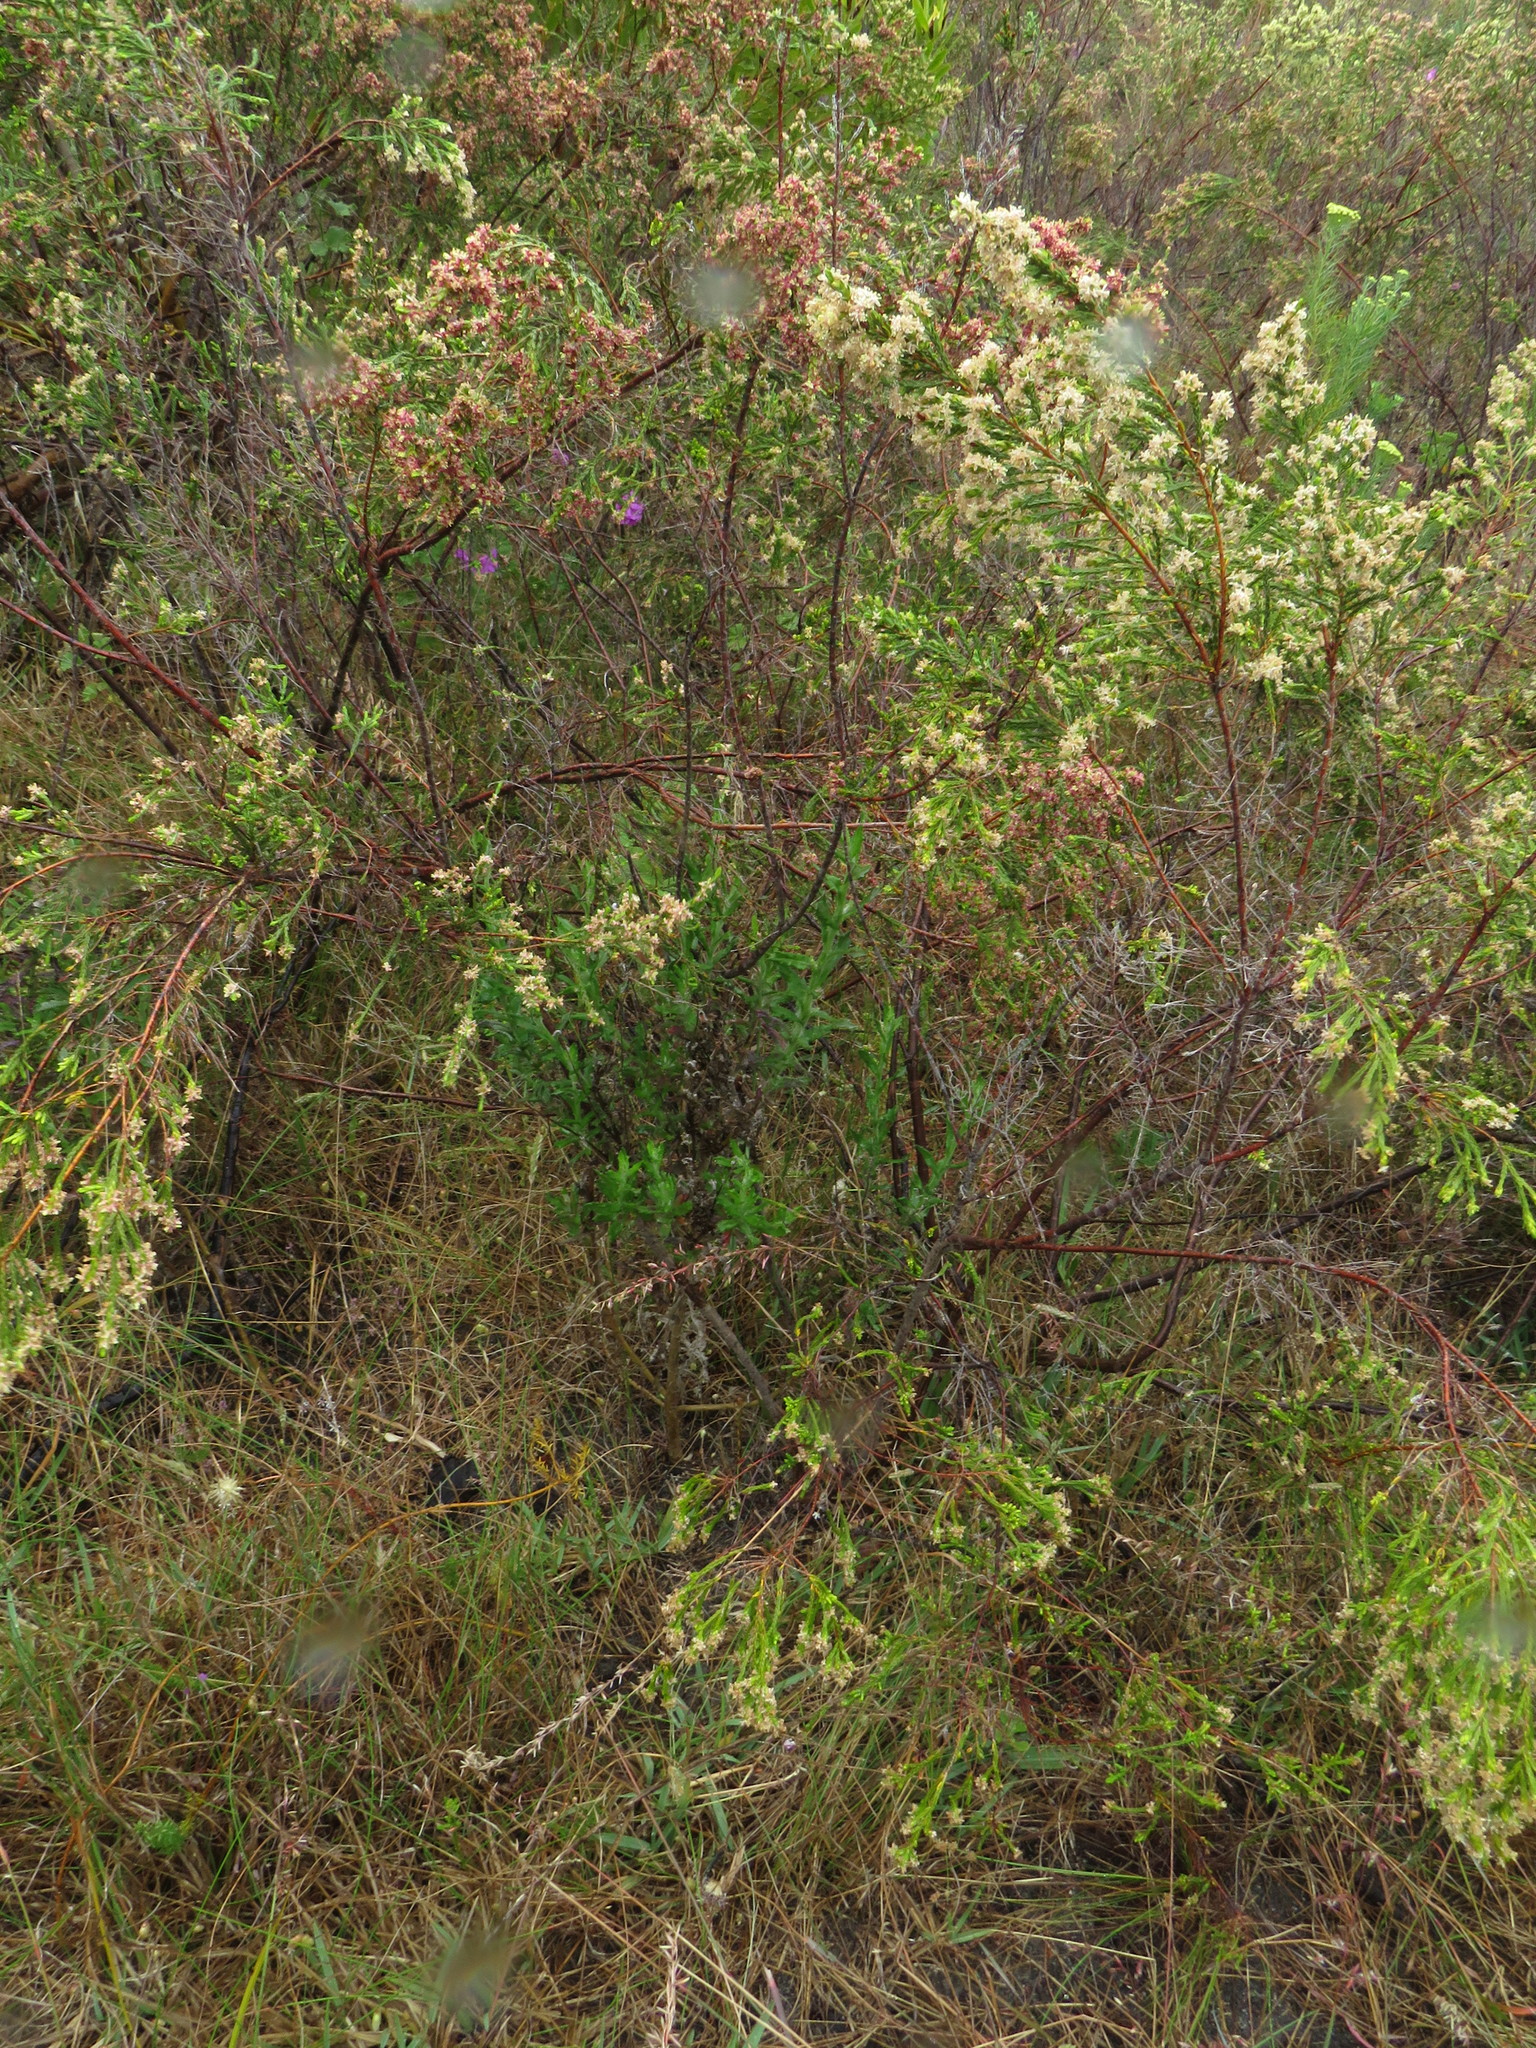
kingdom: Plantae
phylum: Tracheophyta
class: Magnoliopsida
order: Asterales
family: Asteraceae
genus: Senecio
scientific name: Senecio pubigerus
